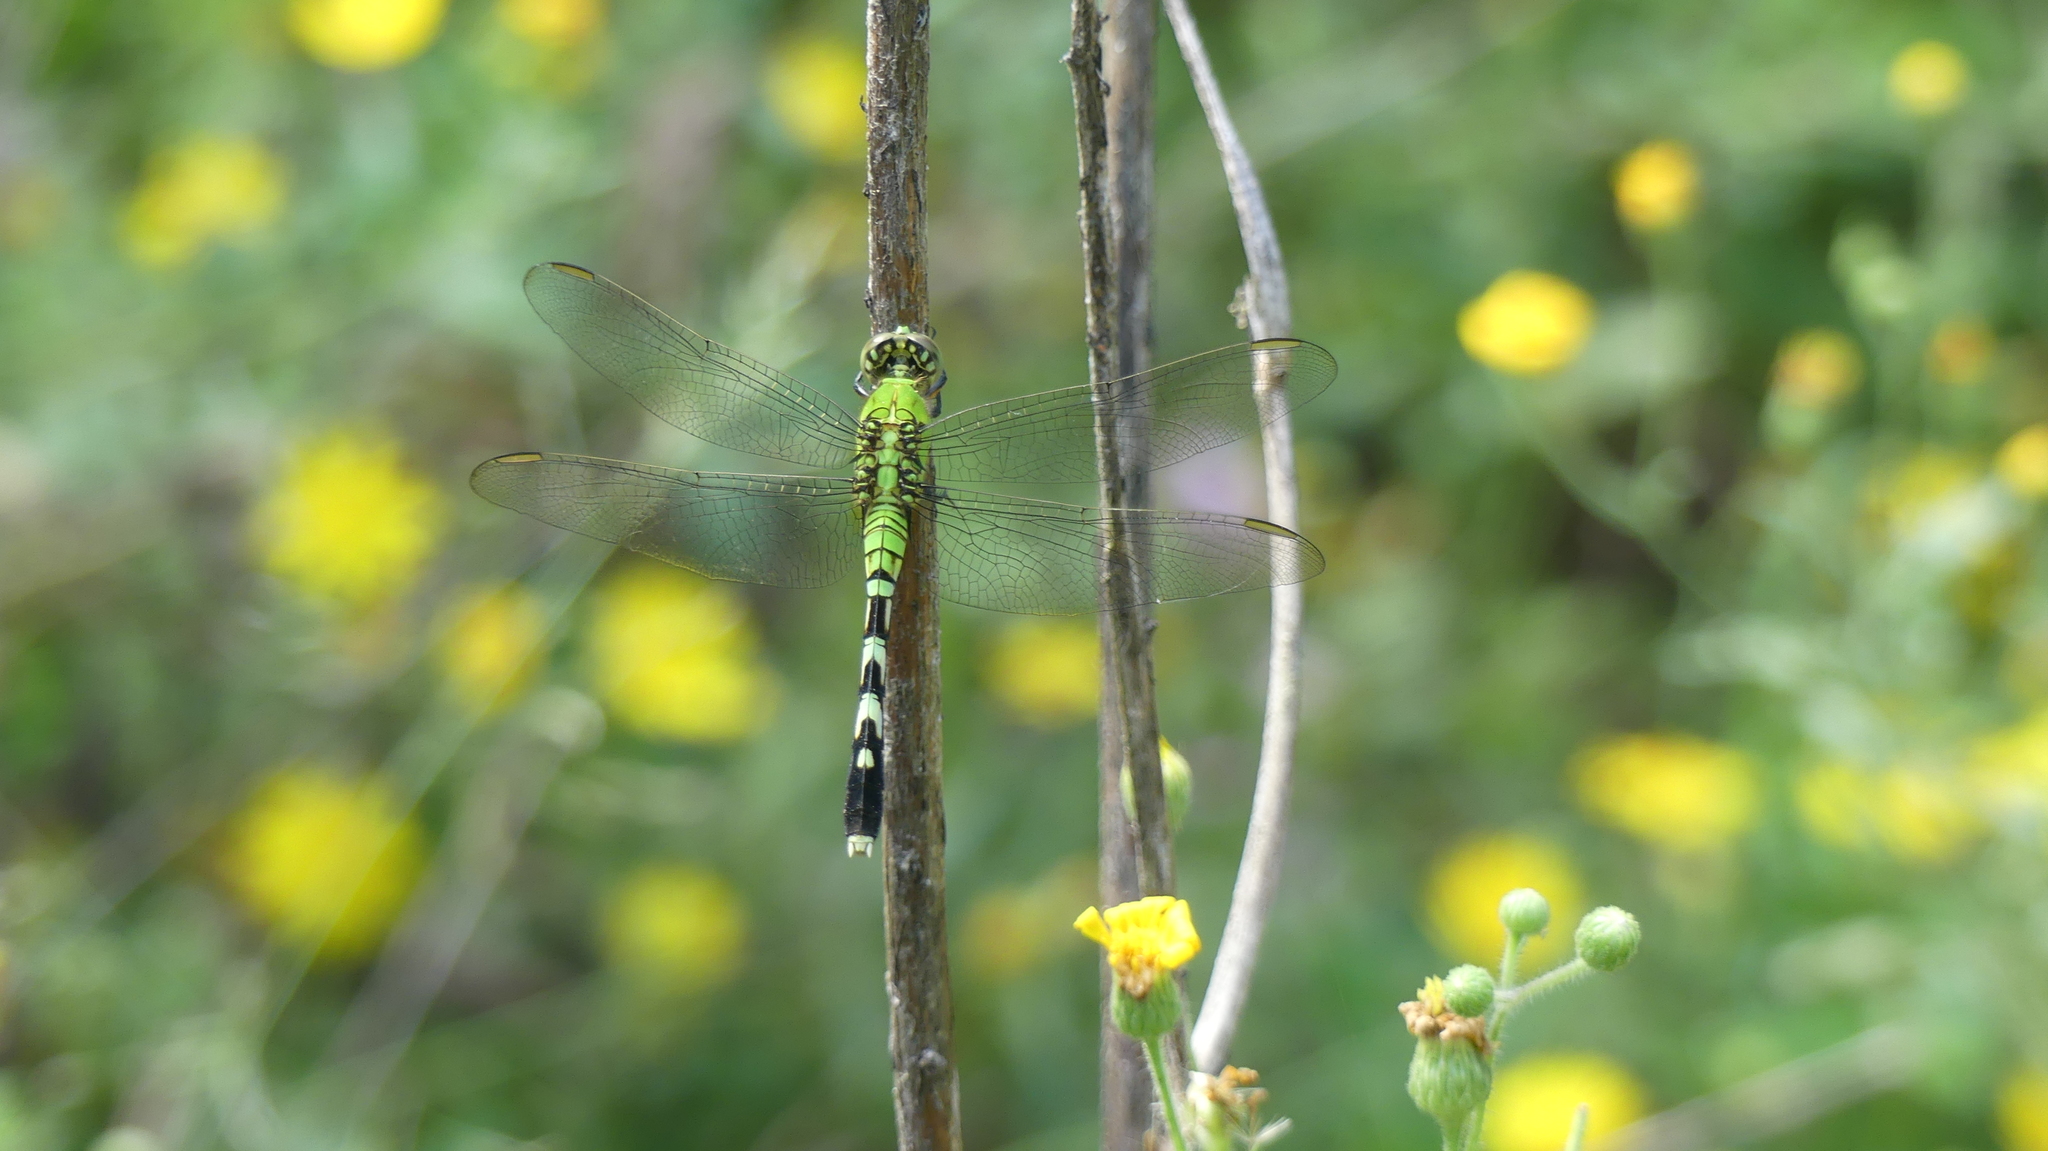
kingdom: Animalia
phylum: Arthropoda
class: Insecta
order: Odonata
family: Libellulidae
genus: Erythemis
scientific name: Erythemis simplicicollis
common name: Eastern pondhawk
